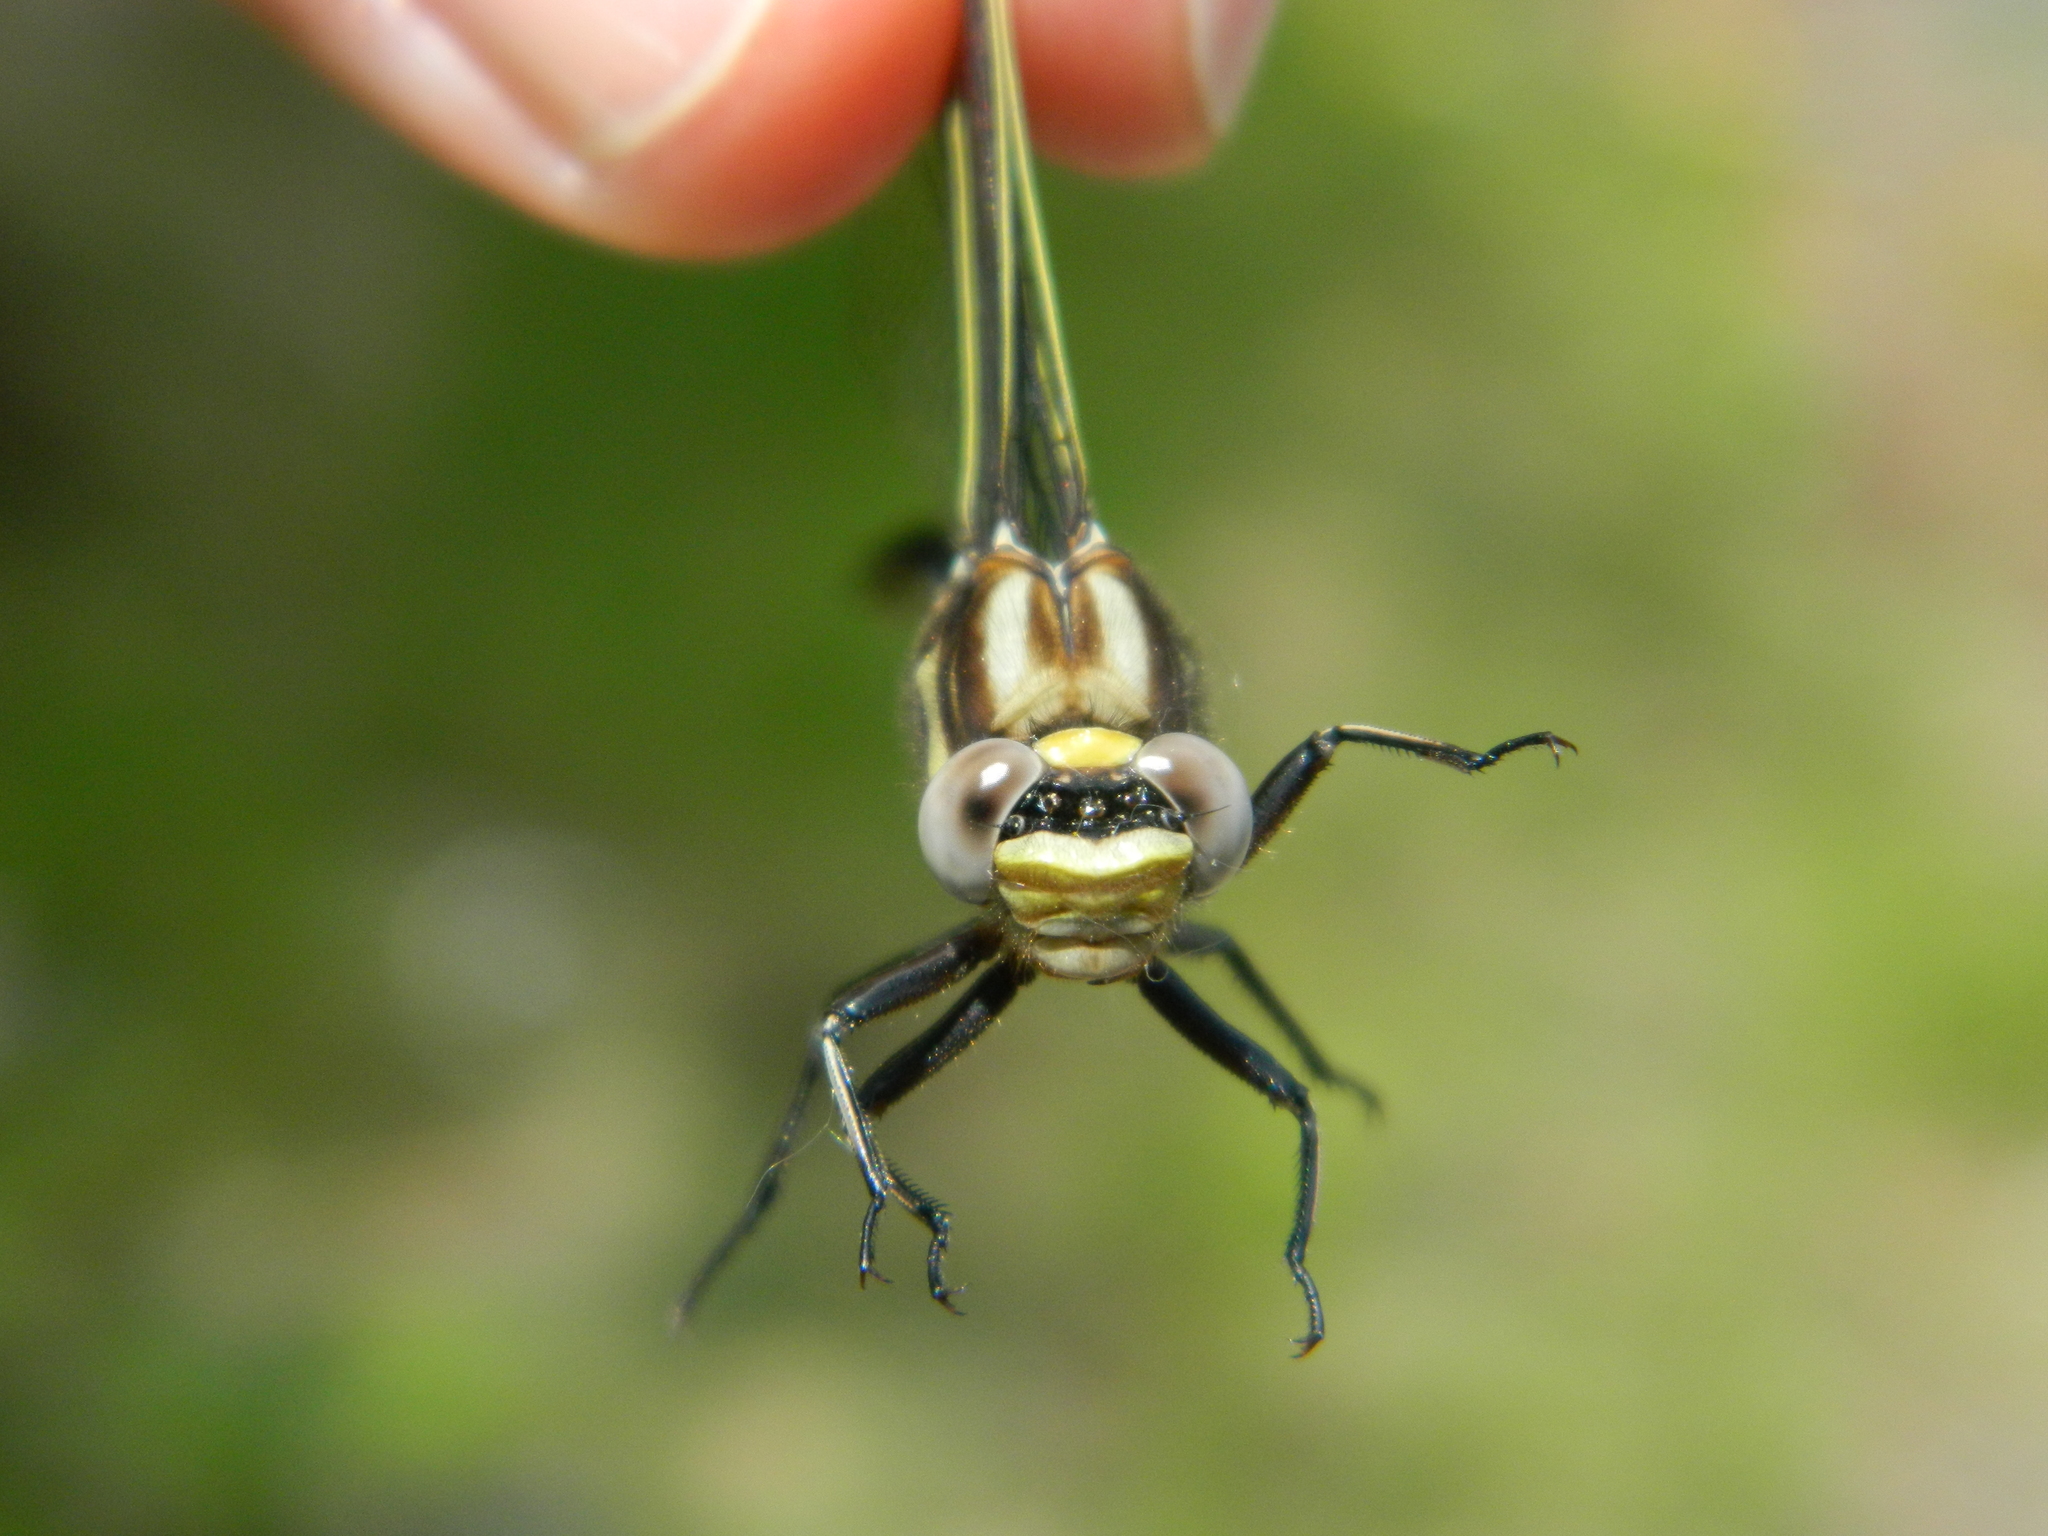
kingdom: Animalia
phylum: Arthropoda
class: Insecta
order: Odonata
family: Gomphidae
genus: Phanogomphus
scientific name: Phanogomphus spicatus
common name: Dusky clubtail
